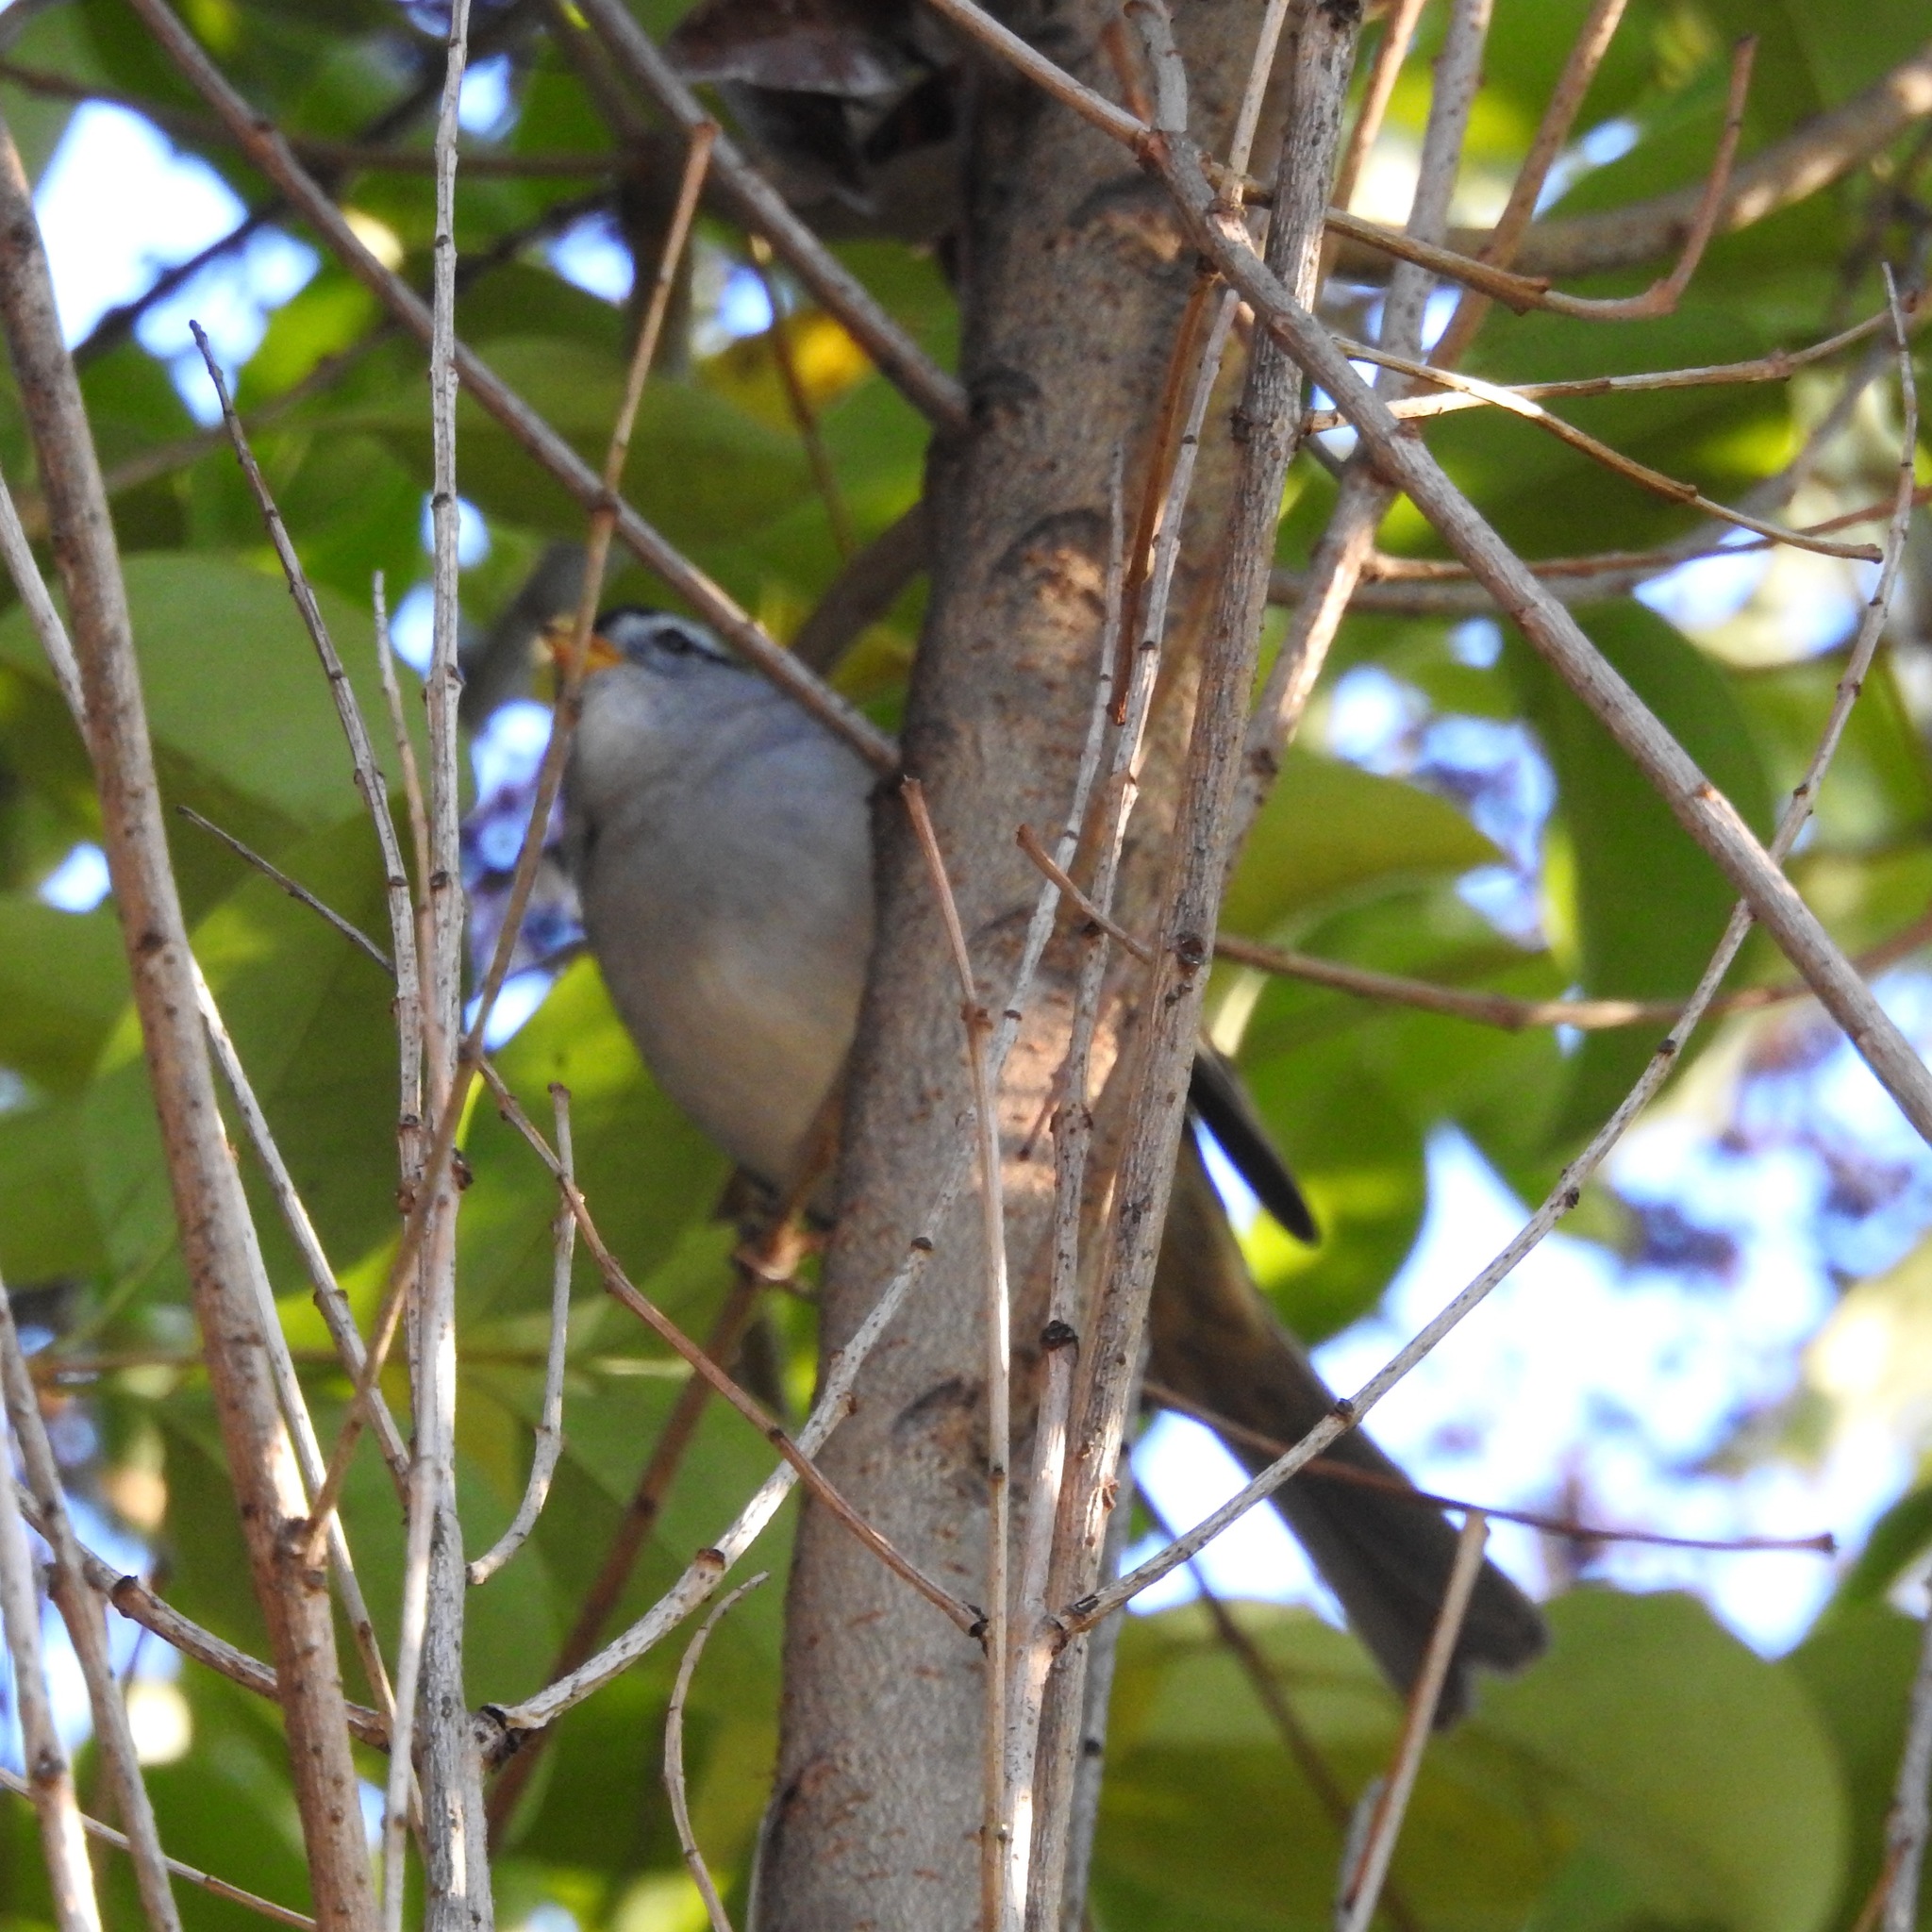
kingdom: Animalia
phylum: Chordata
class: Aves
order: Passeriformes
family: Passerellidae
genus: Zonotrichia
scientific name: Zonotrichia leucophrys
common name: White-crowned sparrow
